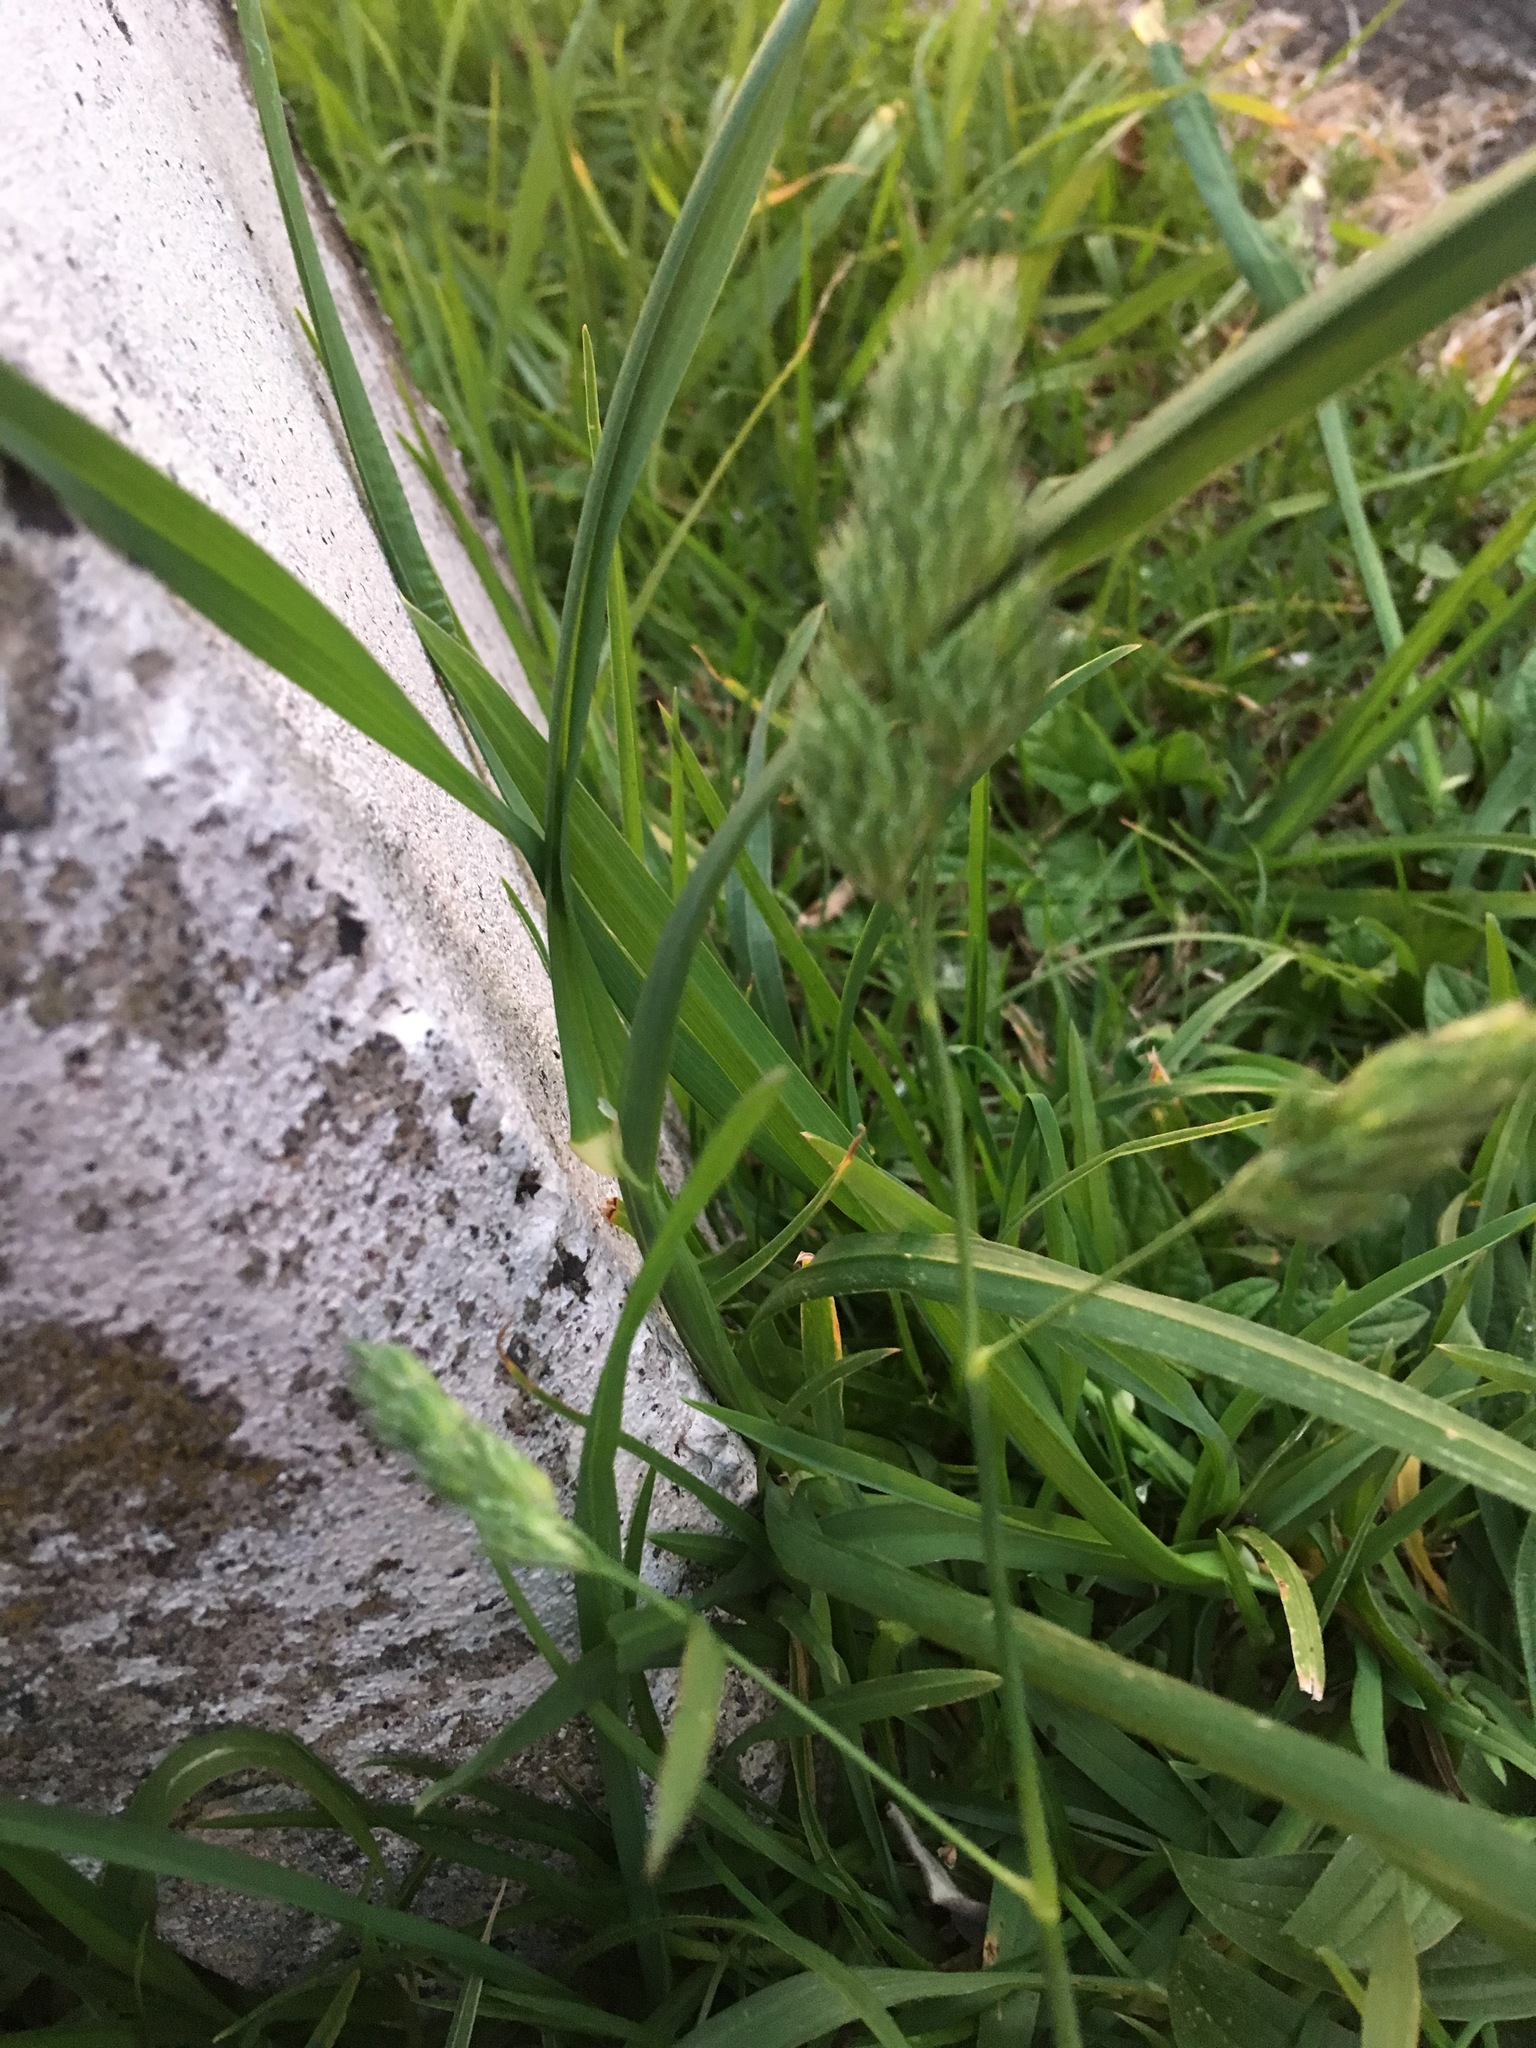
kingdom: Plantae
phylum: Tracheophyta
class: Liliopsida
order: Poales
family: Poaceae
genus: Dactylis
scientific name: Dactylis glomerata
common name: Orchardgrass
